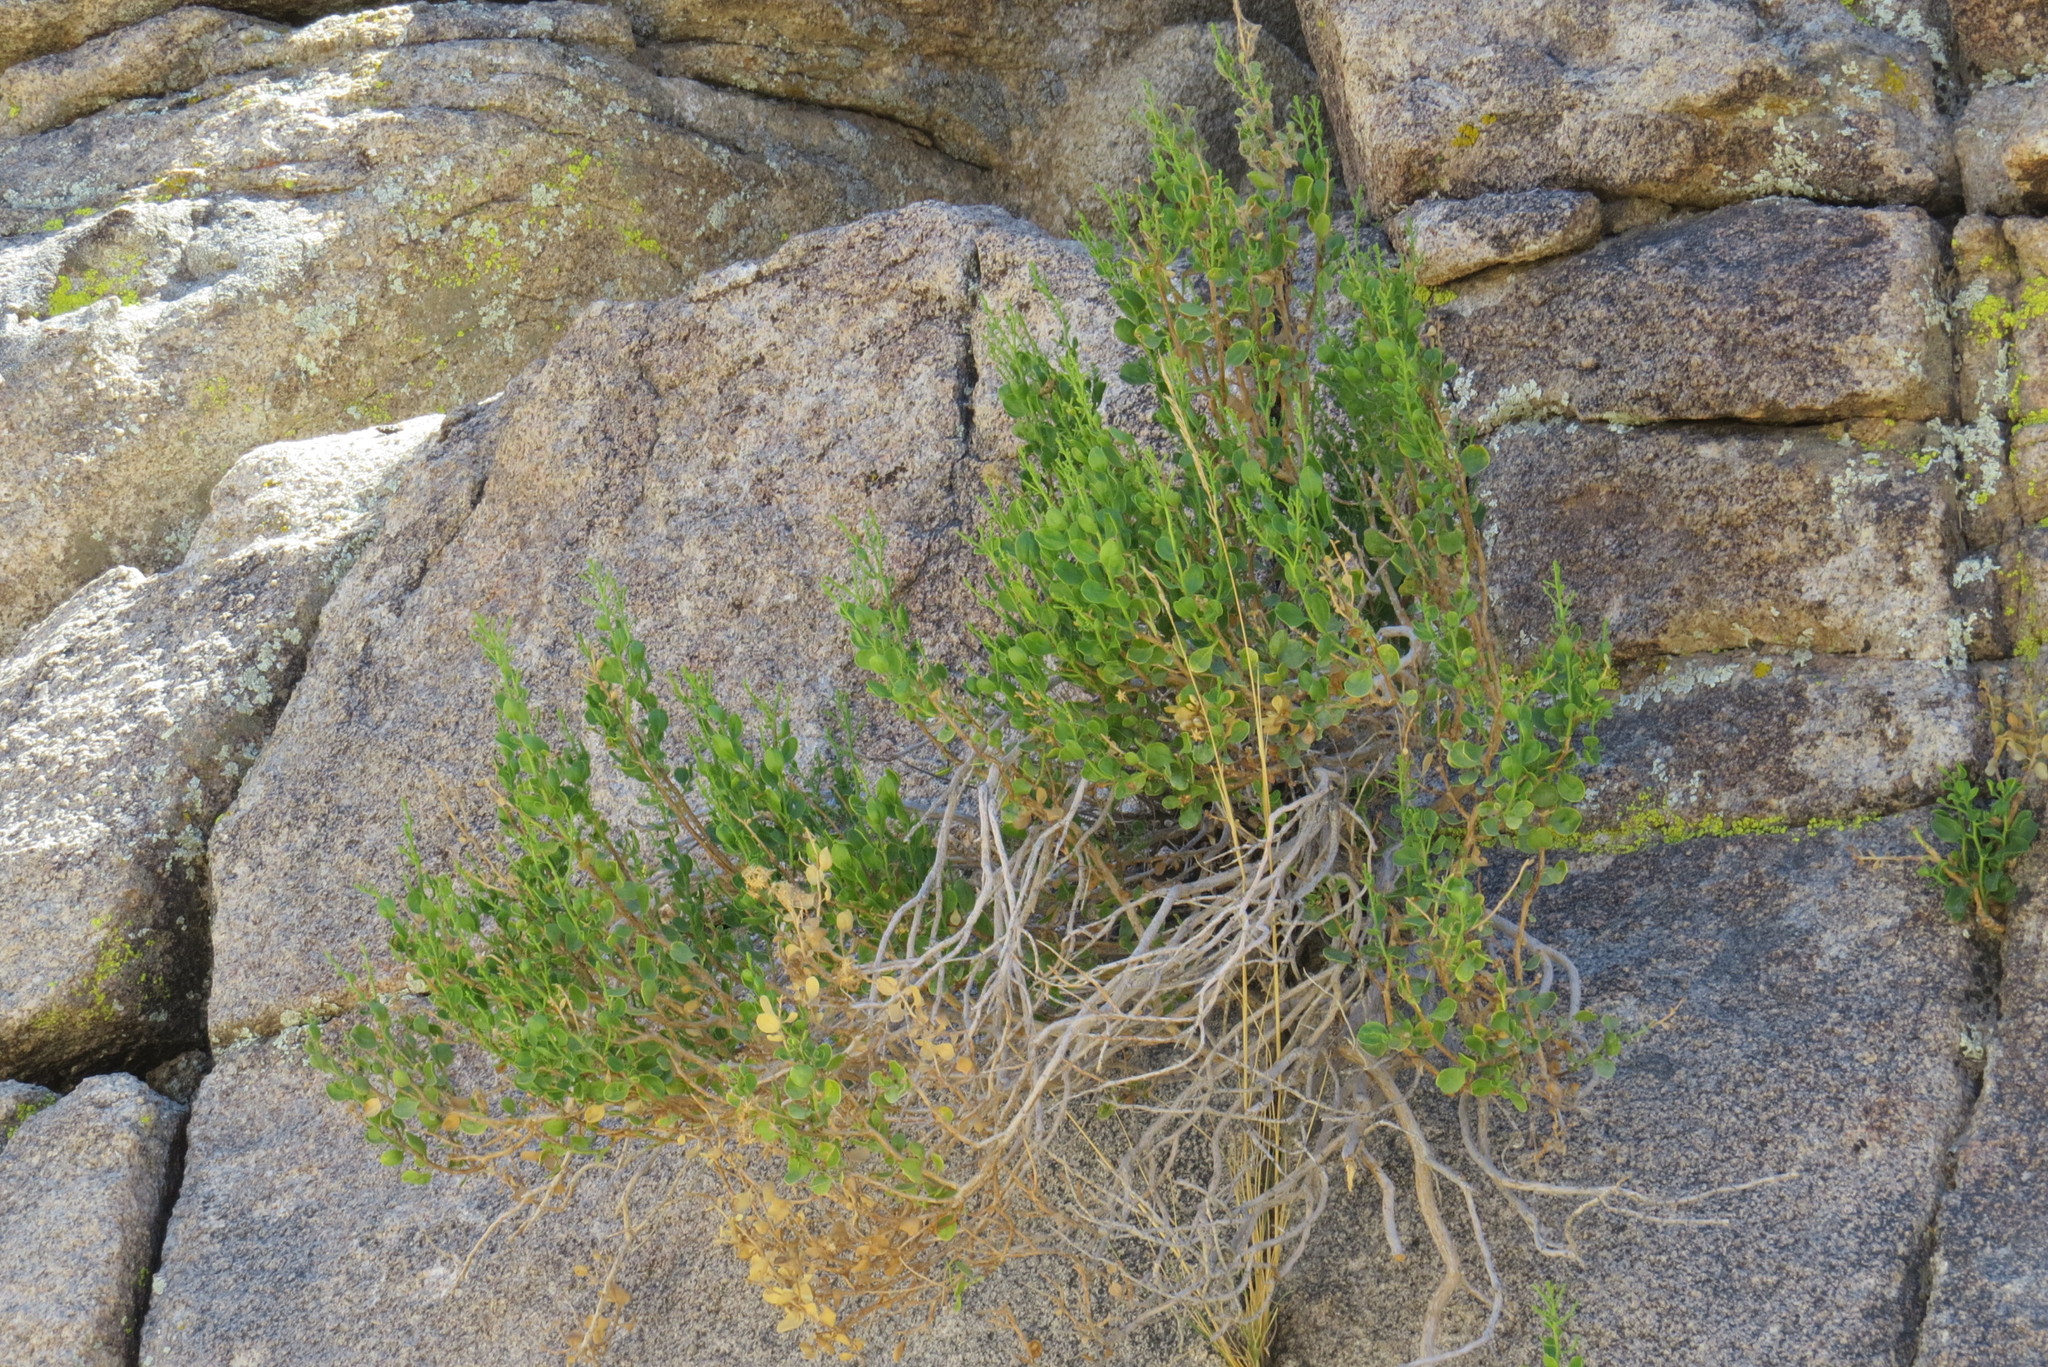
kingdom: Plantae
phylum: Tracheophyta
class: Magnoliopsida
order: Asterales
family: Asteraceae
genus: Ericameria
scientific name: Ericameria cuneata
